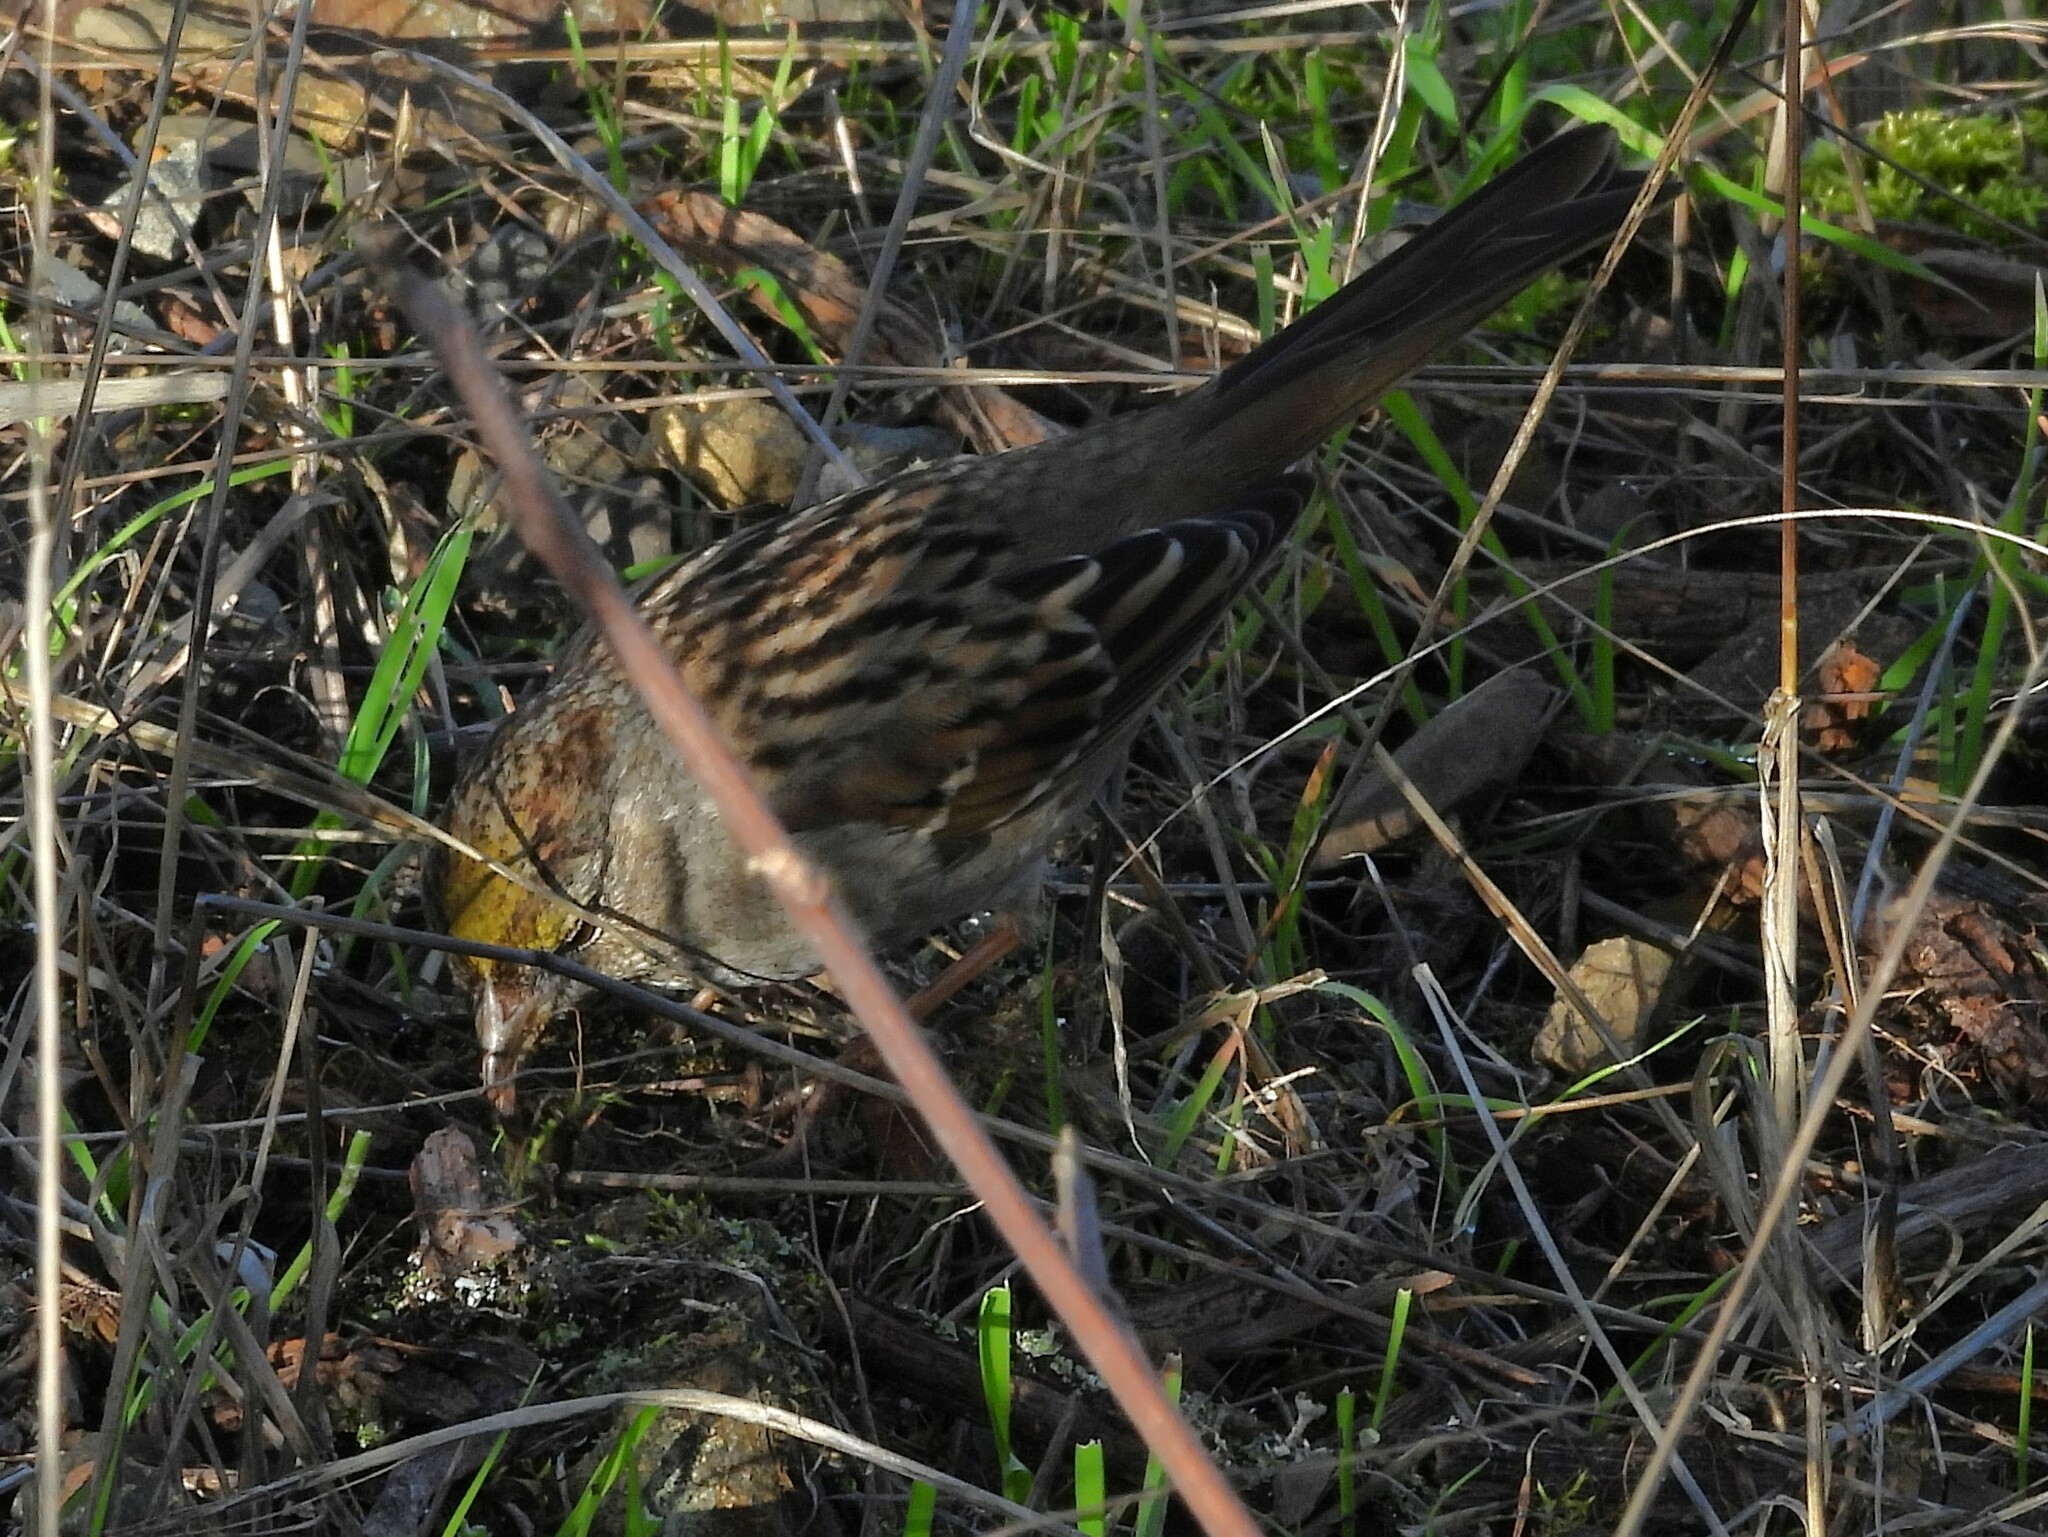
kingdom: Animalia
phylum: Chordata
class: Aves
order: Passeriformes
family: Passerellidae
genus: Zonotrichia
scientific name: Zonotrichia atricapilla
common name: Golden-crowned sparrow
